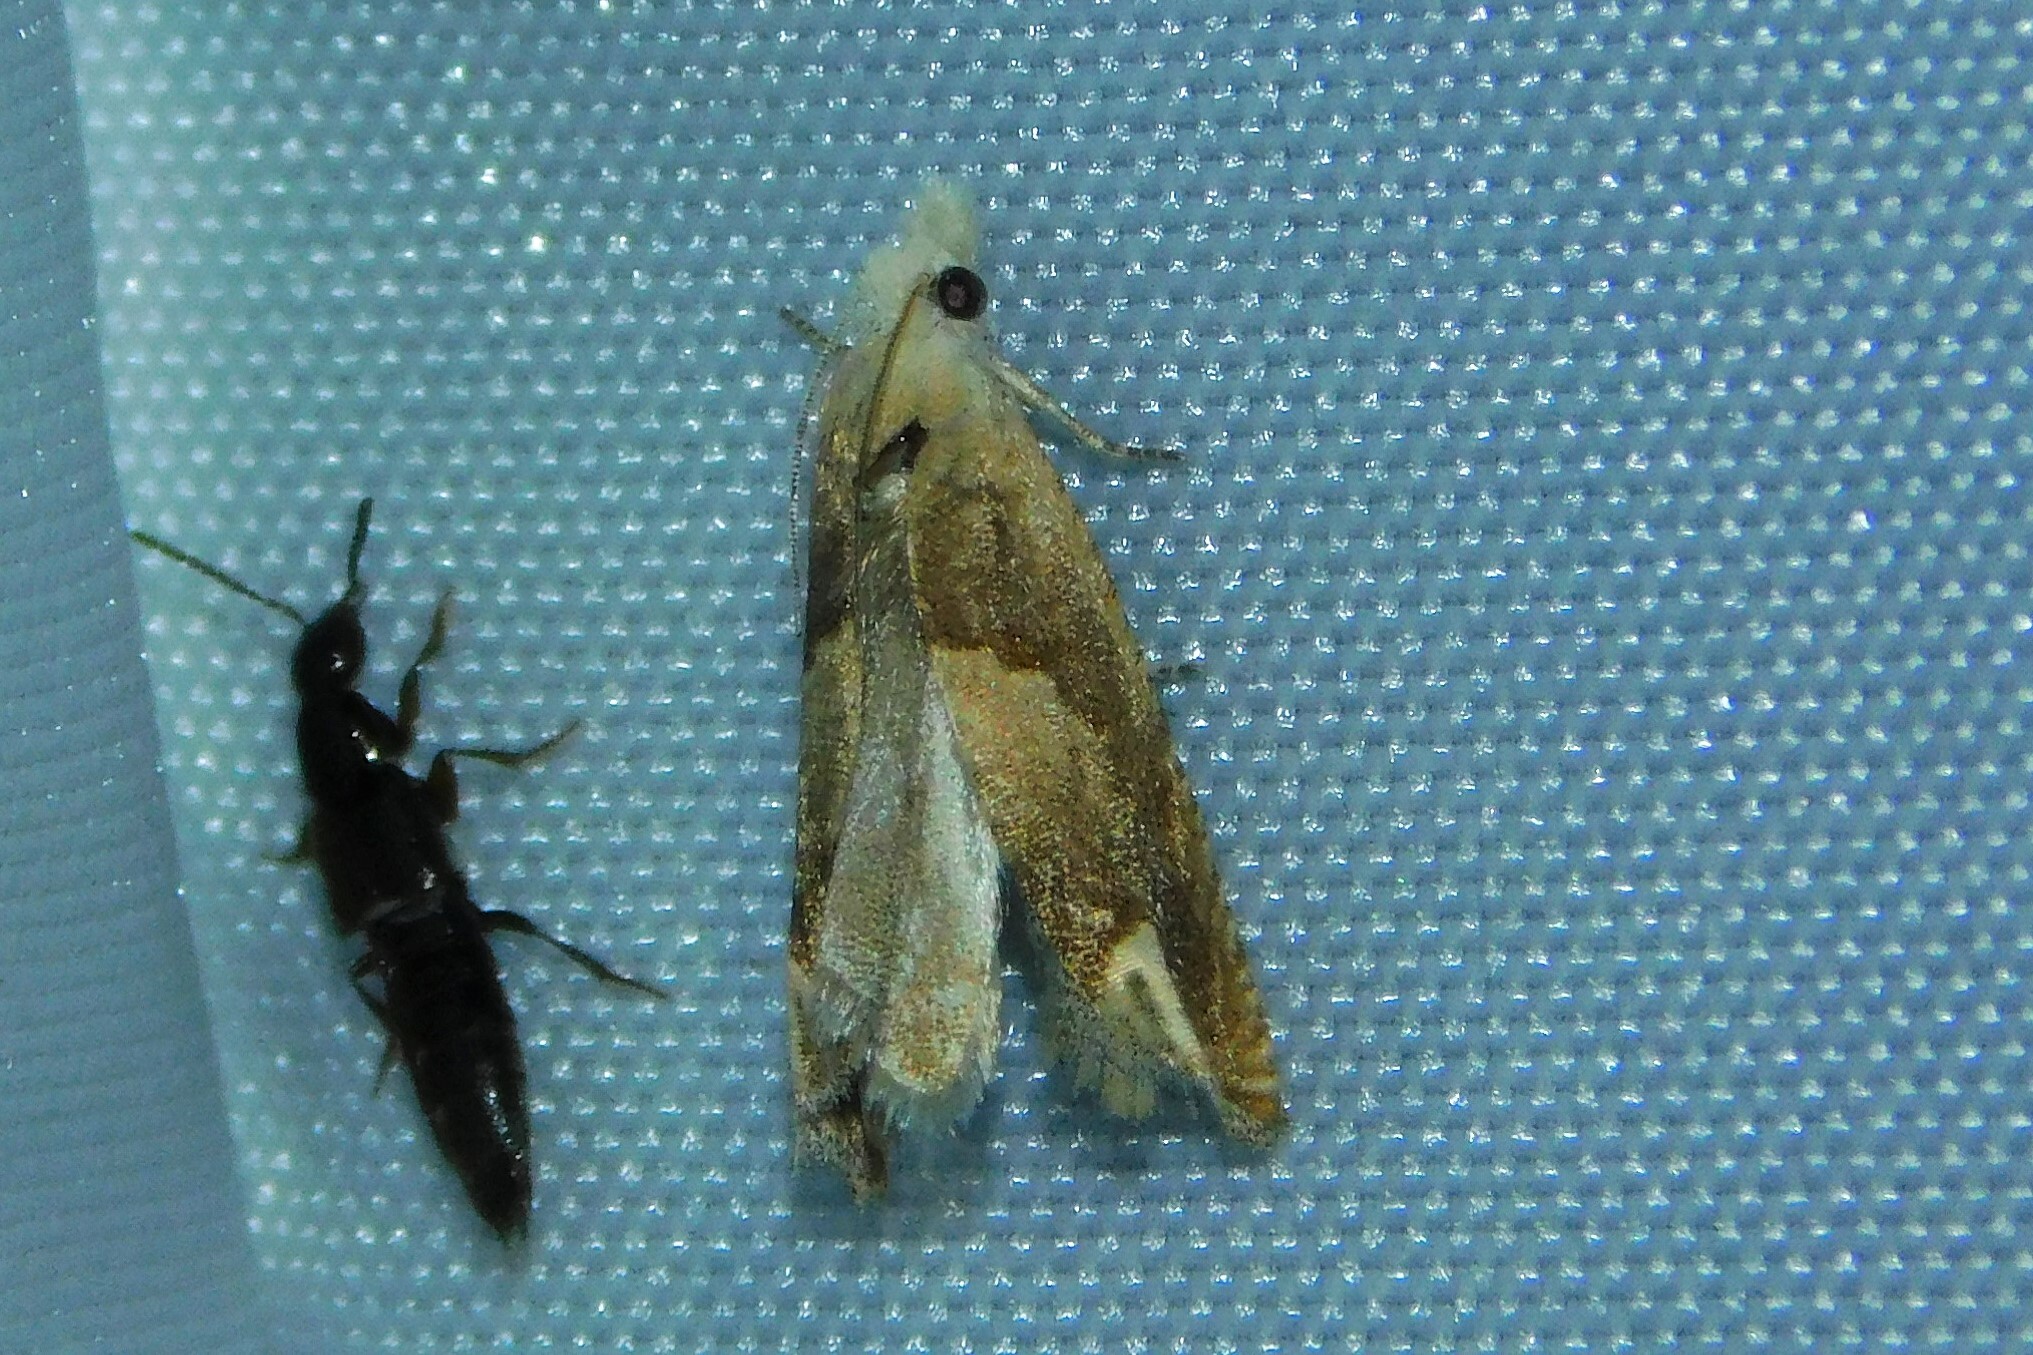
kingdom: Animalia
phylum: Arthropoda
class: Insecta
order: Lepidoptera
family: Tortricidae
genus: Eucosma
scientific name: Eucosma conterminana
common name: Pale lettuce bell
